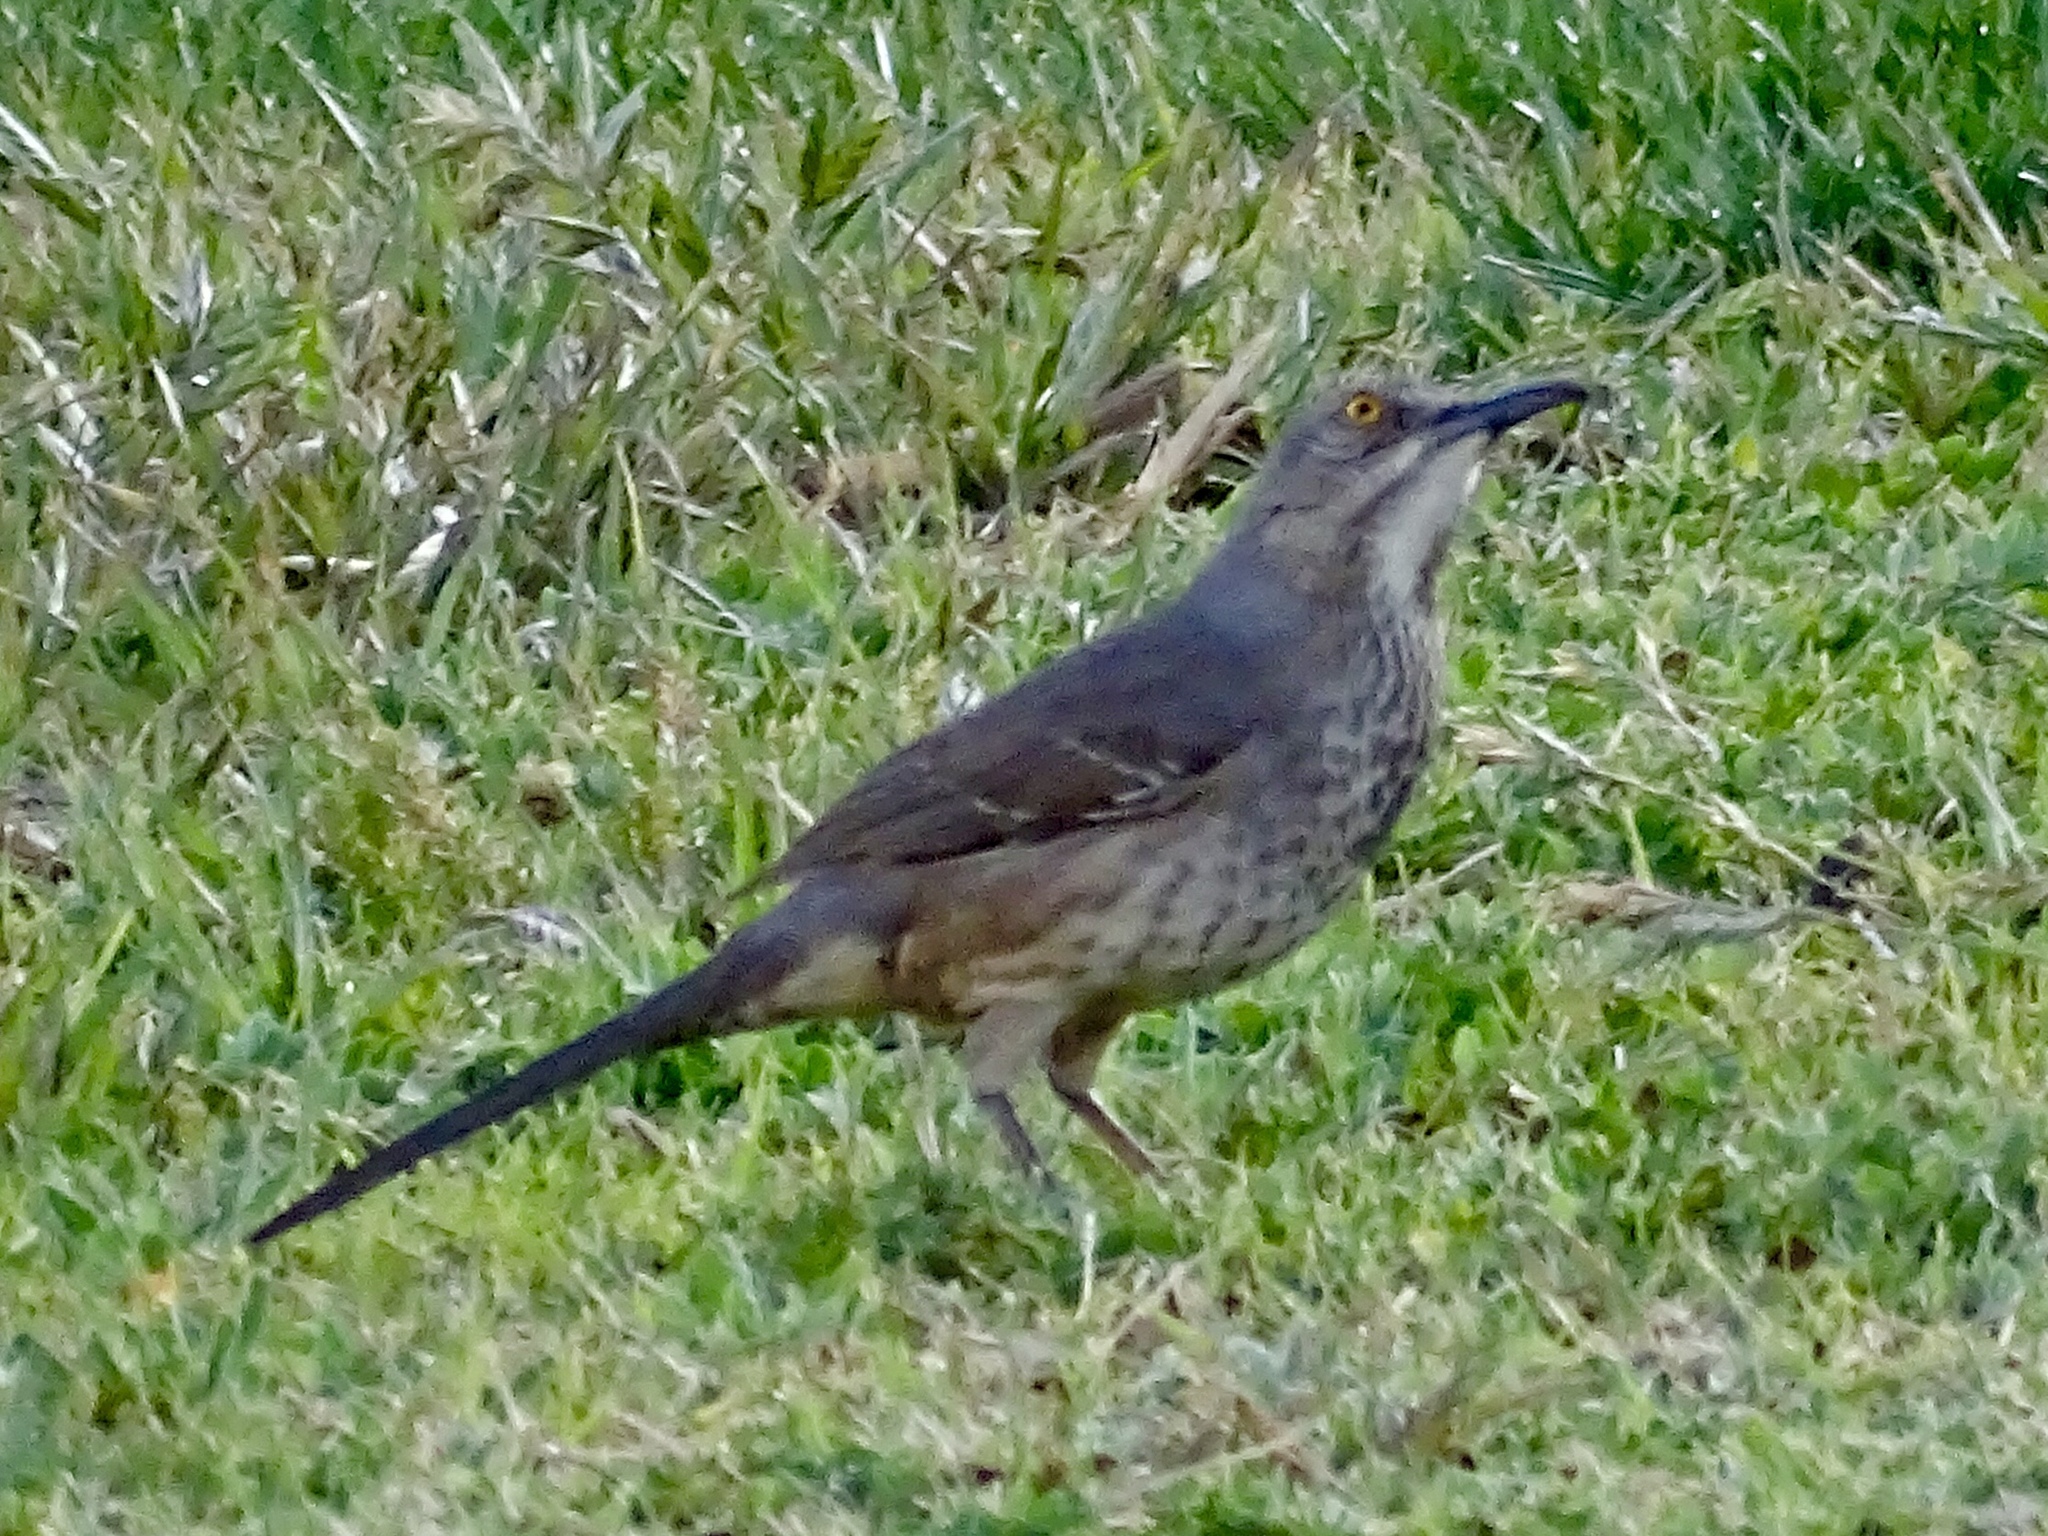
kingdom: Animalia
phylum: Chordata
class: Aves
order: Passeriformes
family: Mimidae
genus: Toxostoma
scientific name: Toxostoma curvirostre
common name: Curve-billed thrasher
